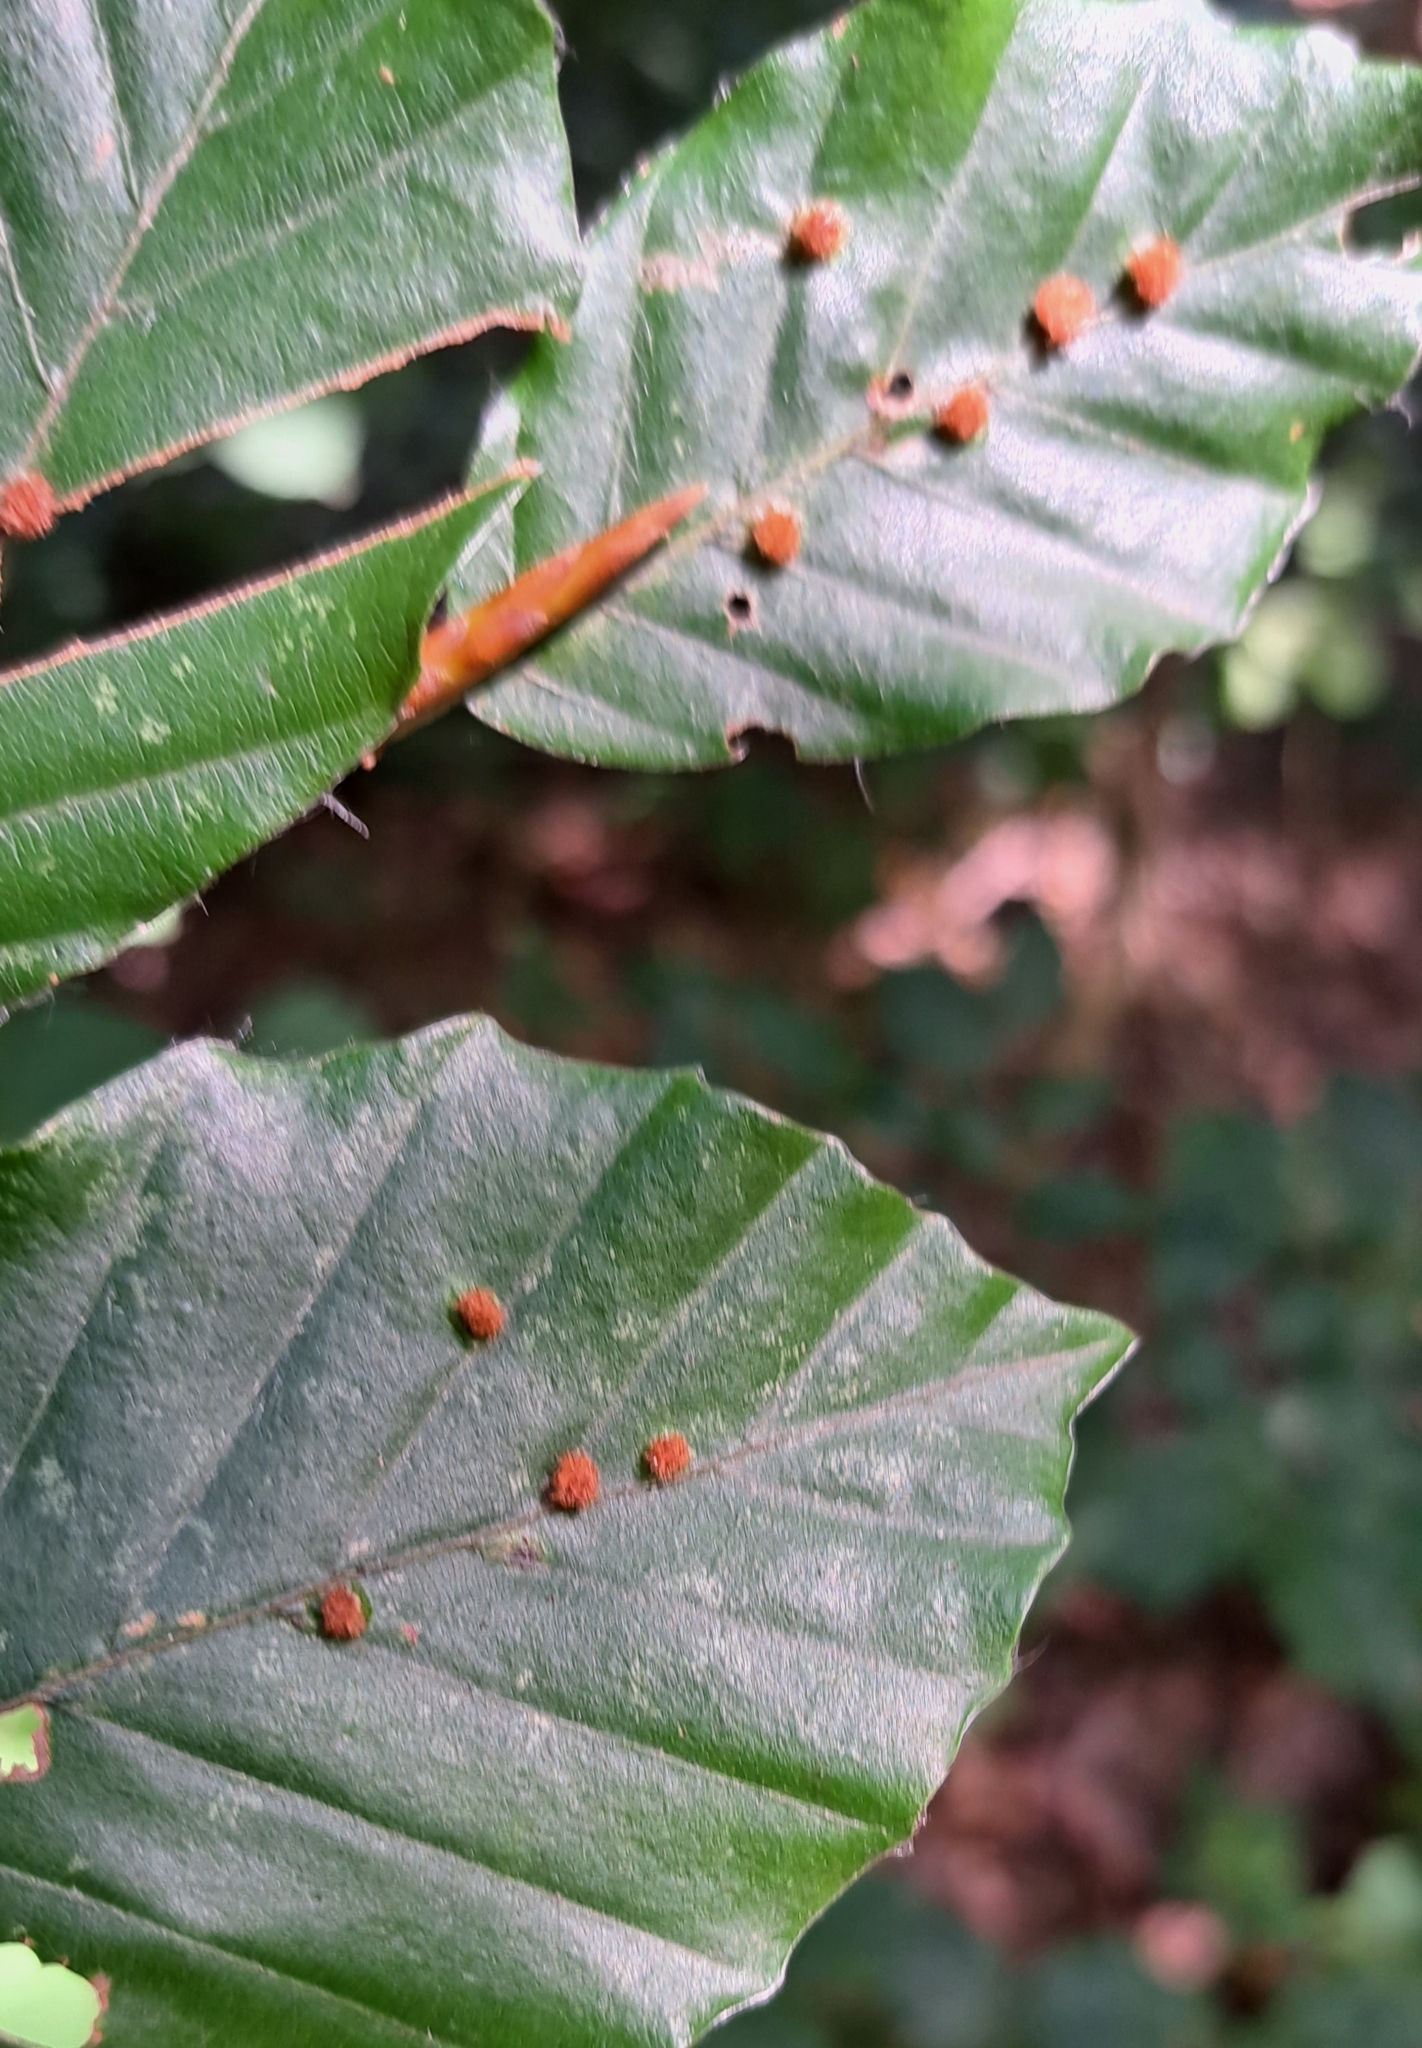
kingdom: Animalia
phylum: Arthropoda
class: Insecta
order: Diptera
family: Cecidomyiidae
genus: Hartigiola
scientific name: Hartigiola annulipes
